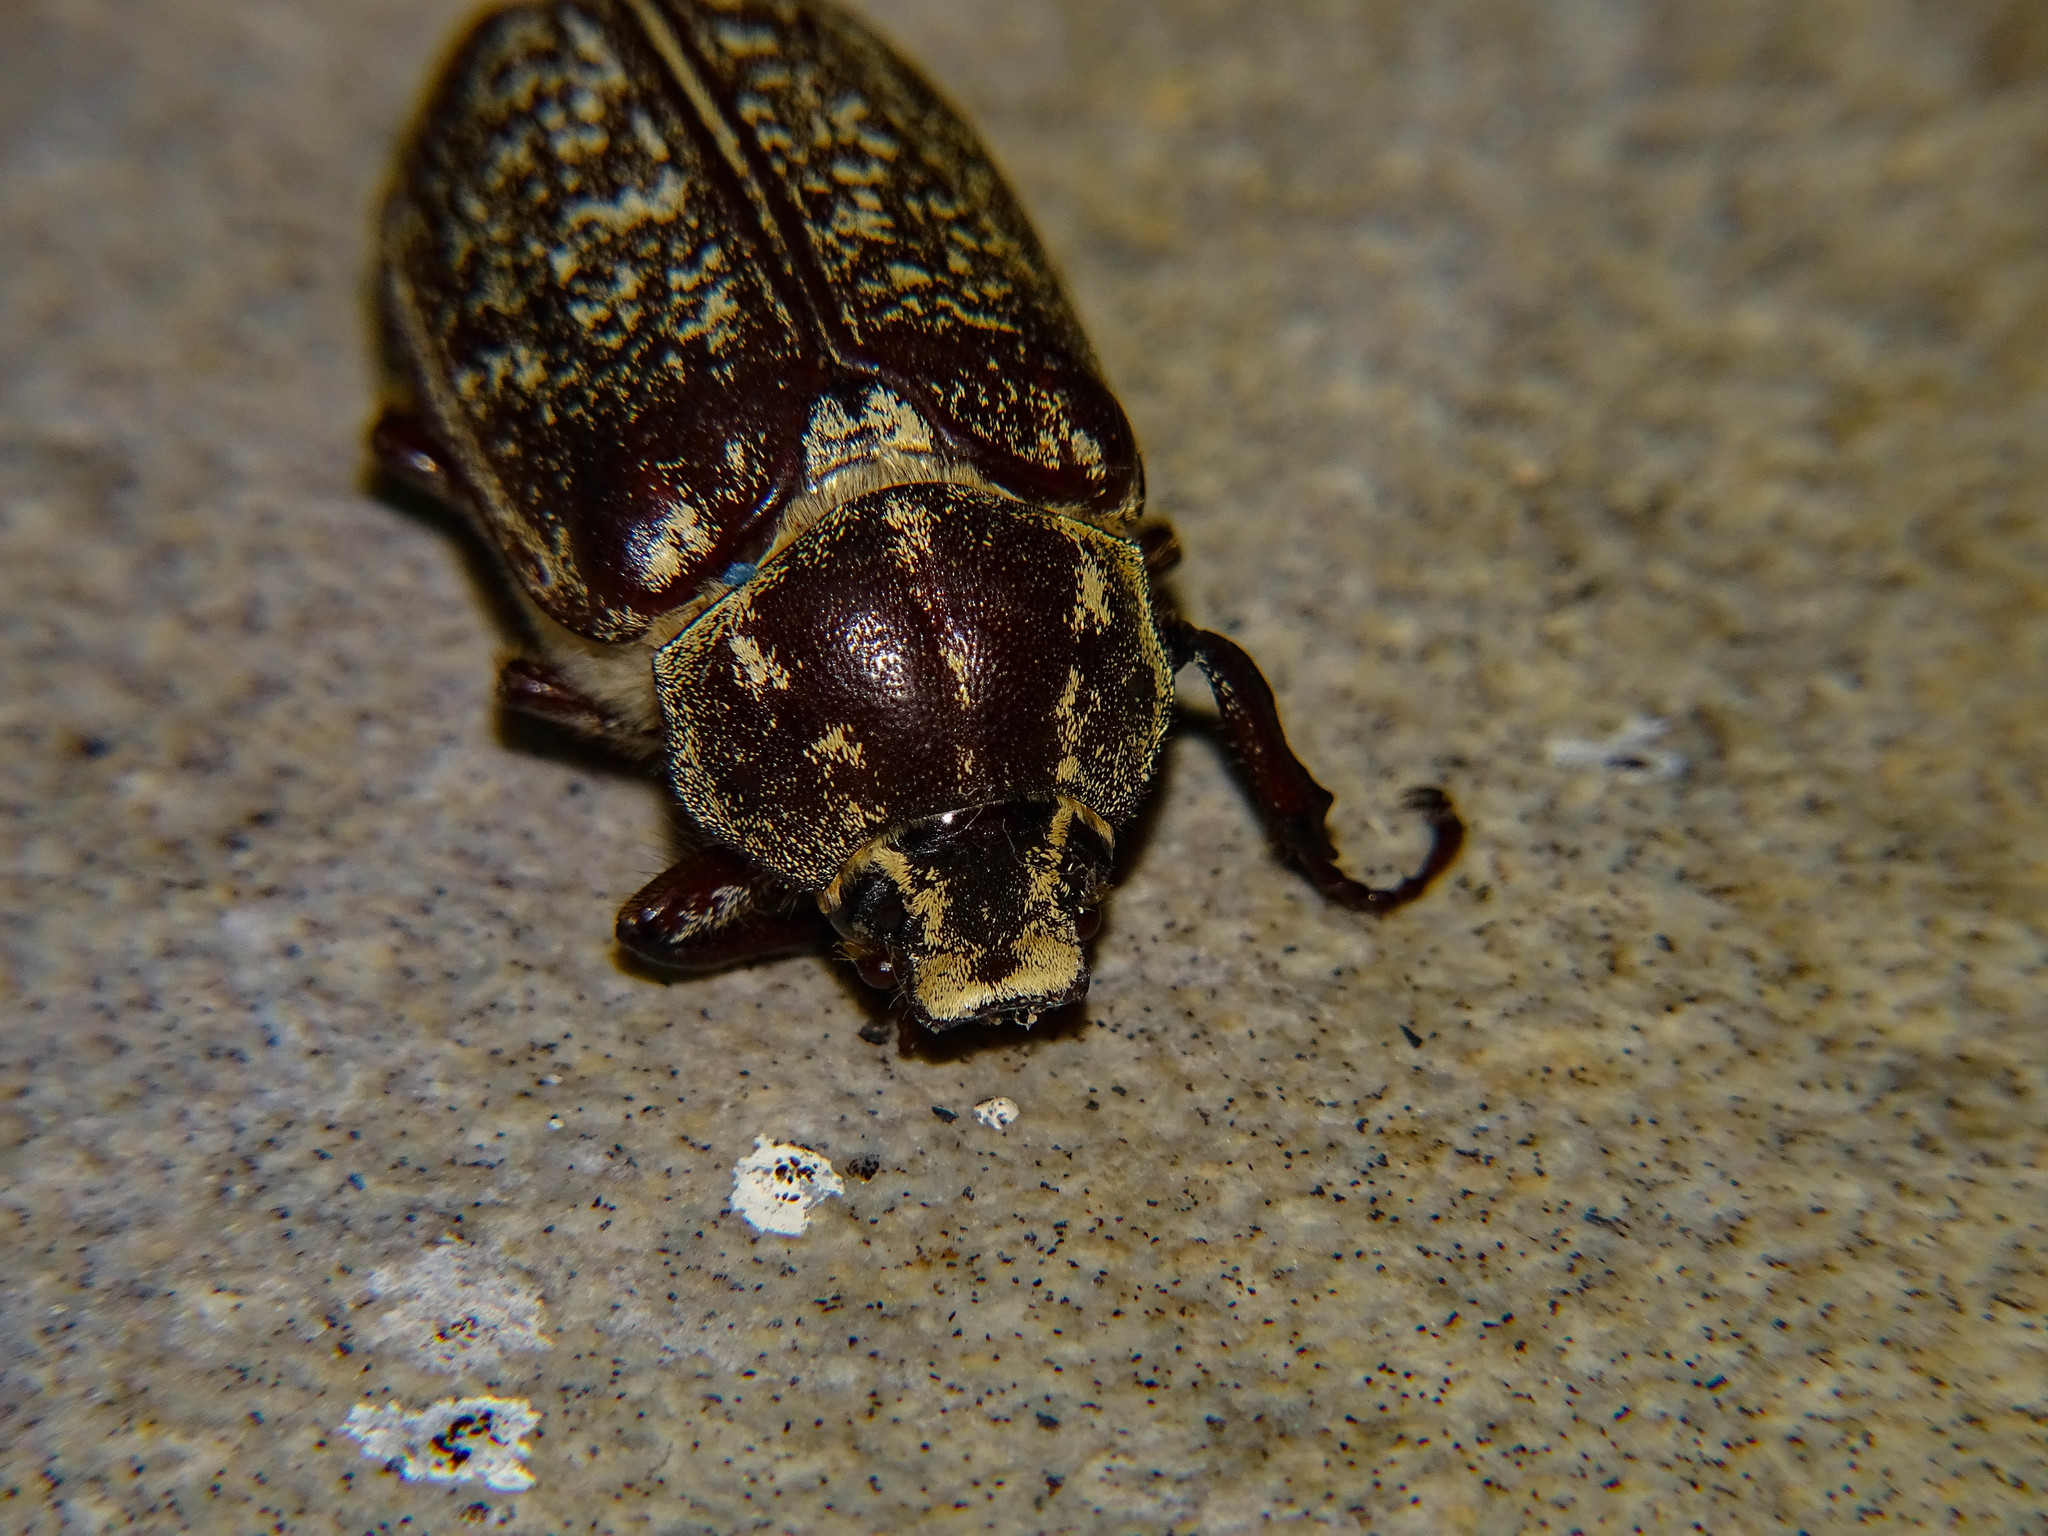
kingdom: Animalia
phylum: Arthropoda
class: Insecta
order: Coleoptera
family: Scarabaeidae
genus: Polyphylla
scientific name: Polyphylla hassi
